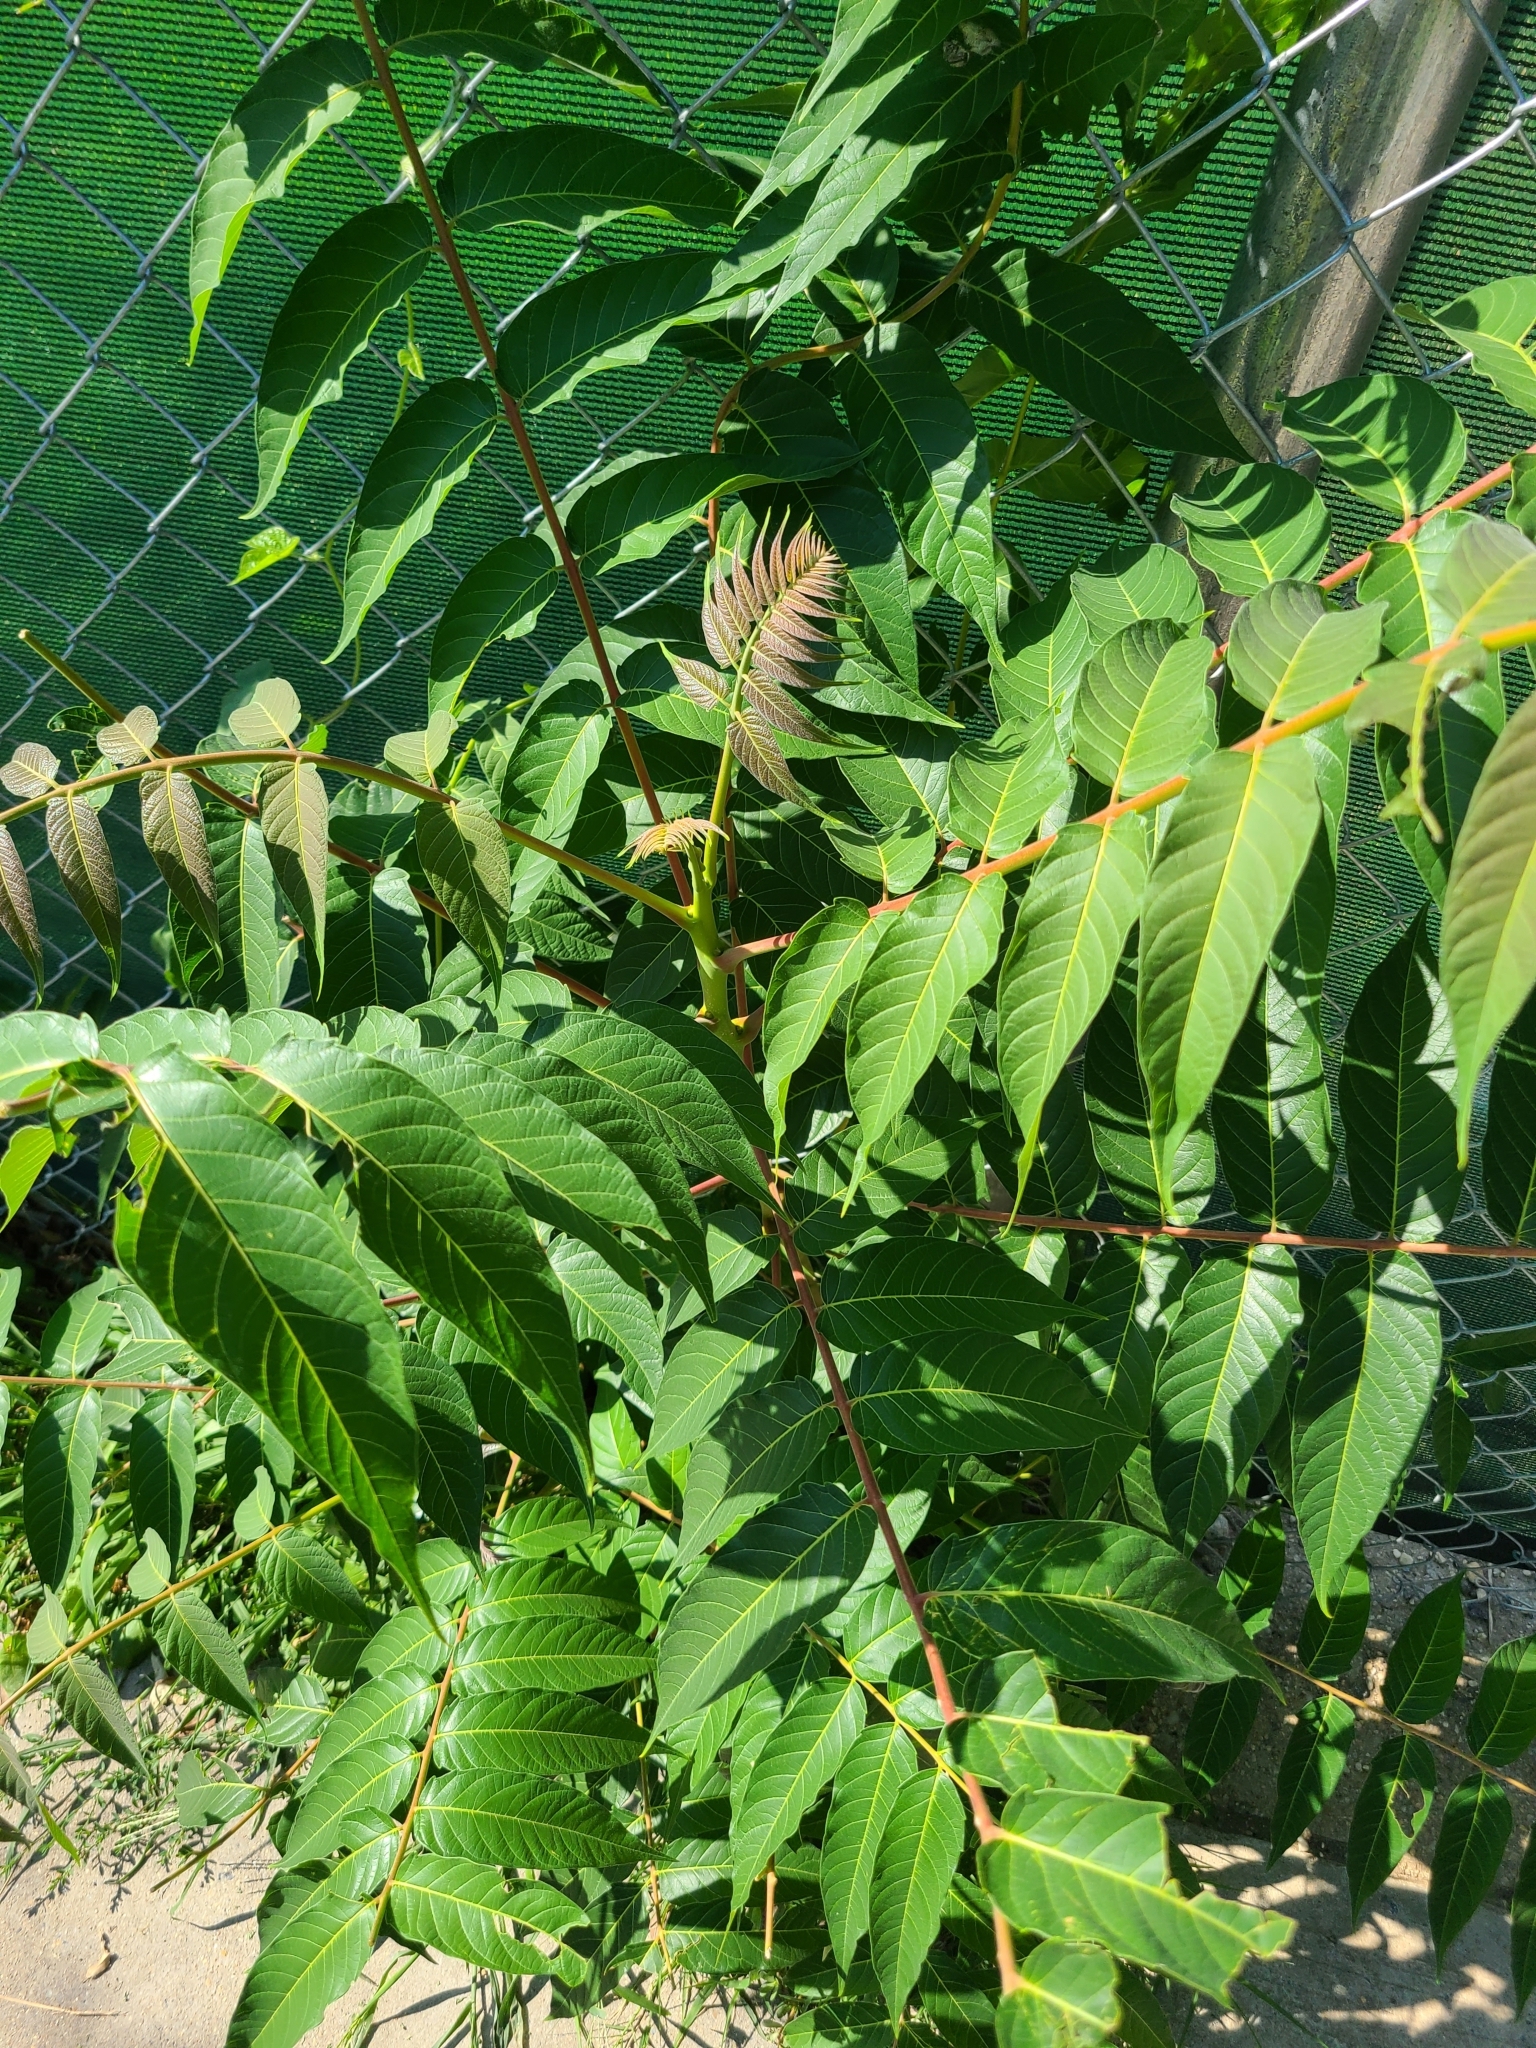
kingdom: Plantae
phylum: Tracheophyta
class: Magnoliopsida
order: Sapindales
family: Simaroubaceae
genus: Ailanthus
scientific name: Ailanthus altissima
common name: Tree-of-heaven
